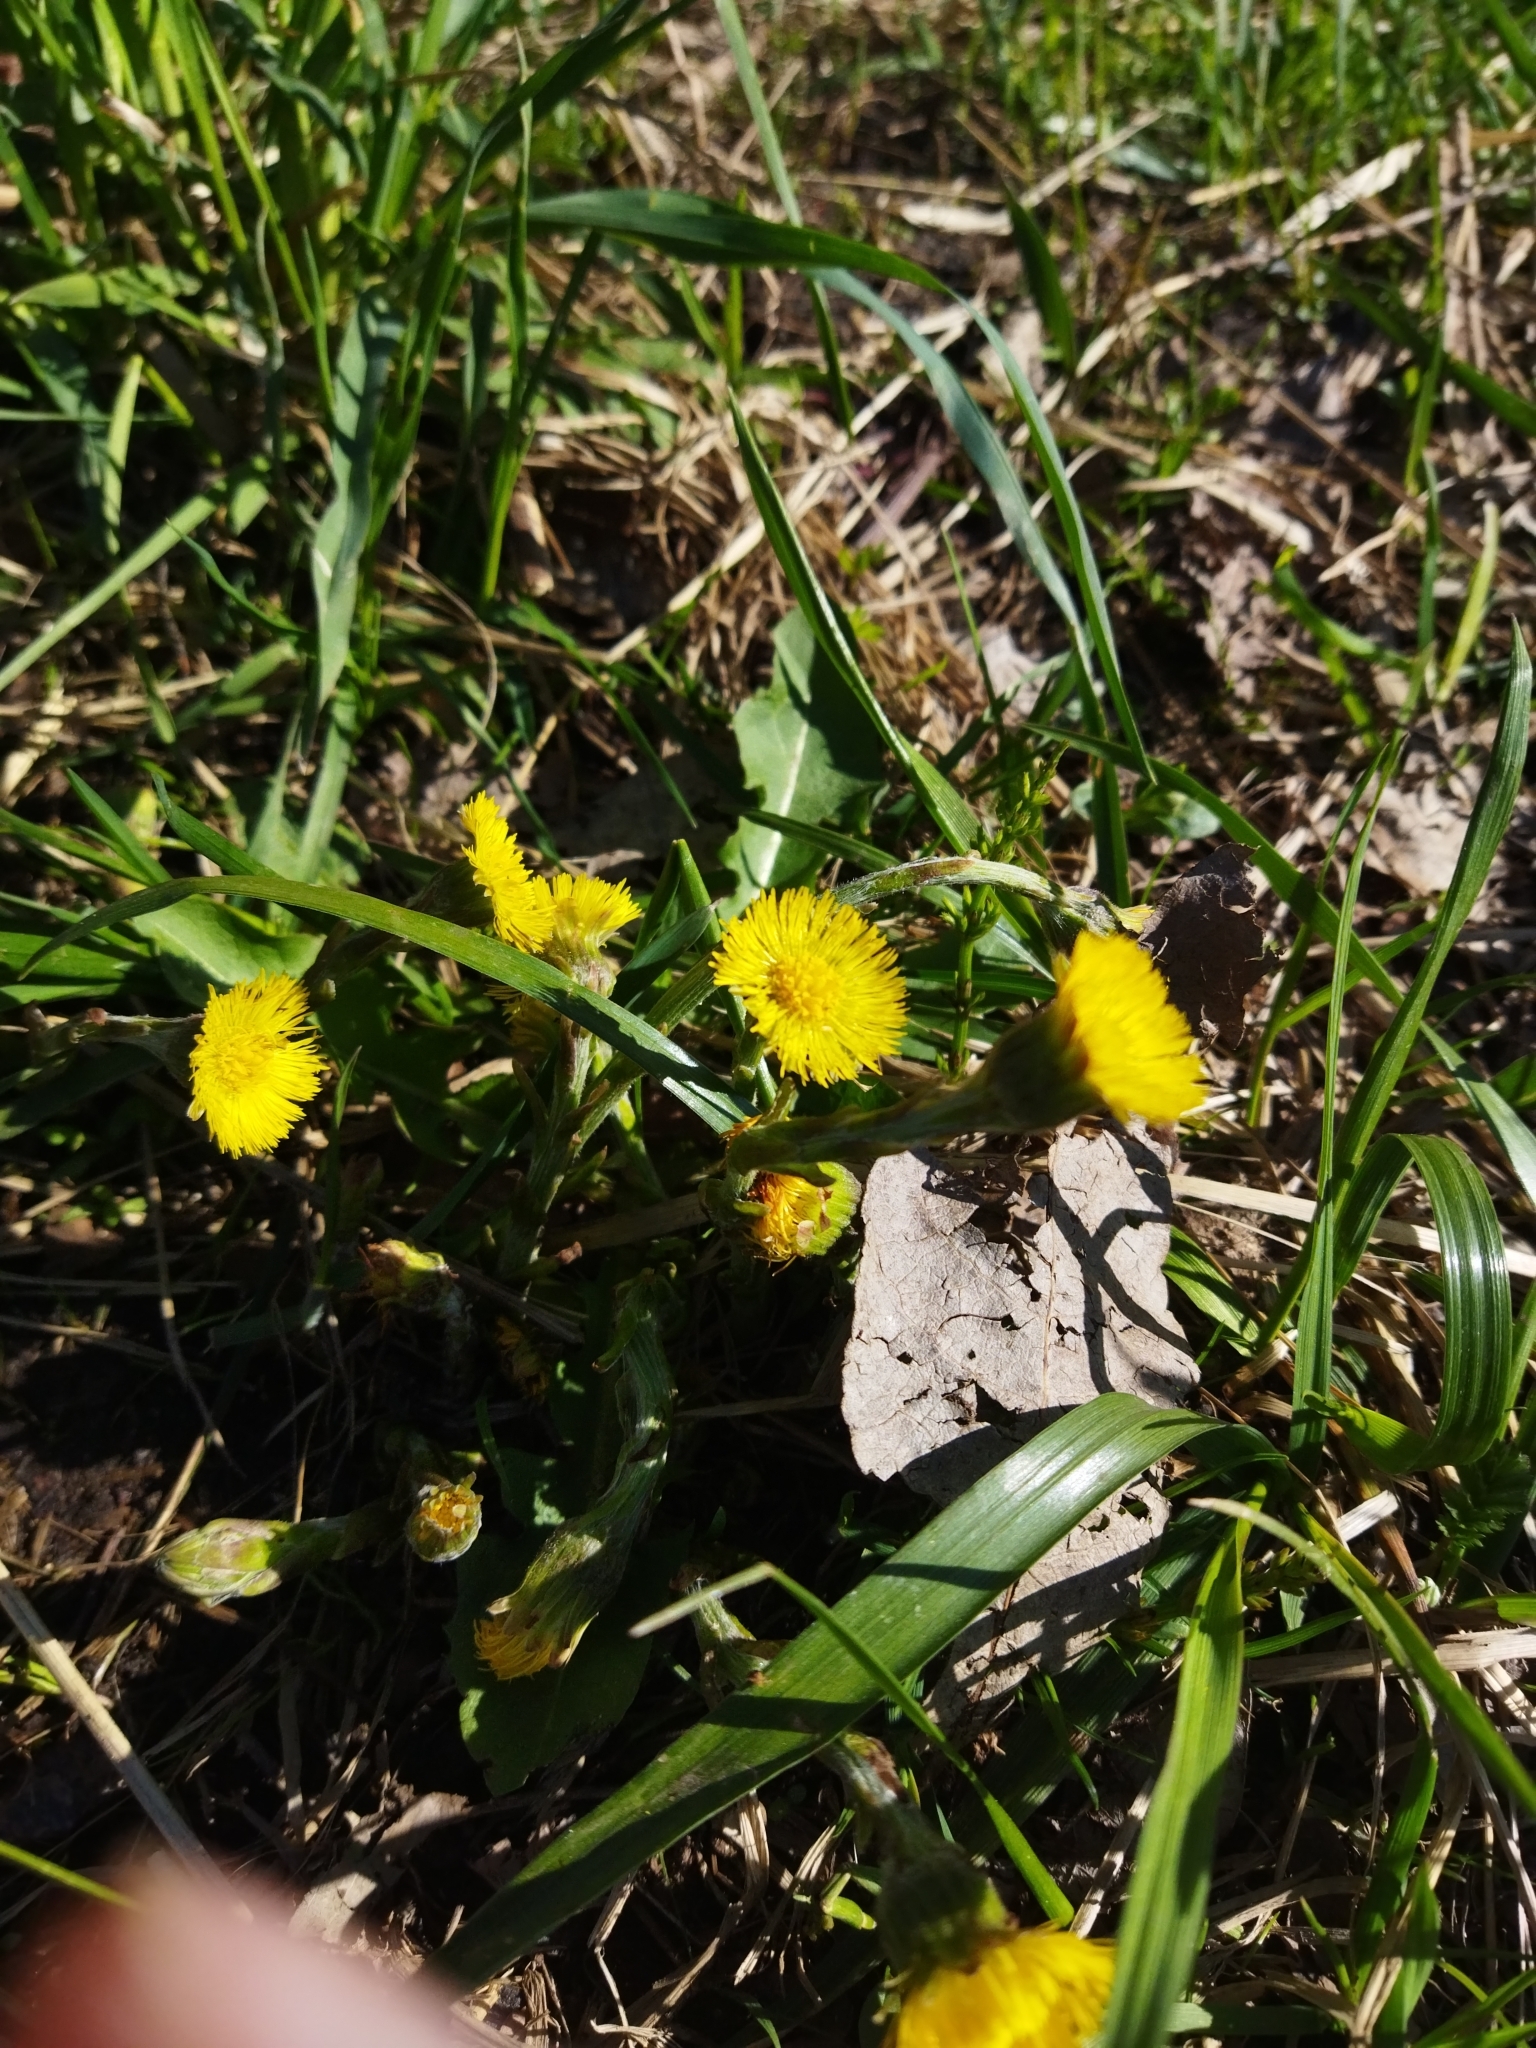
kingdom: Plantae
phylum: Tracheophyta
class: Magnoliopsida
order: Asterales
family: Asteraceae
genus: Tussilago
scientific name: Tussilago farfara
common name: Coltsfoot
